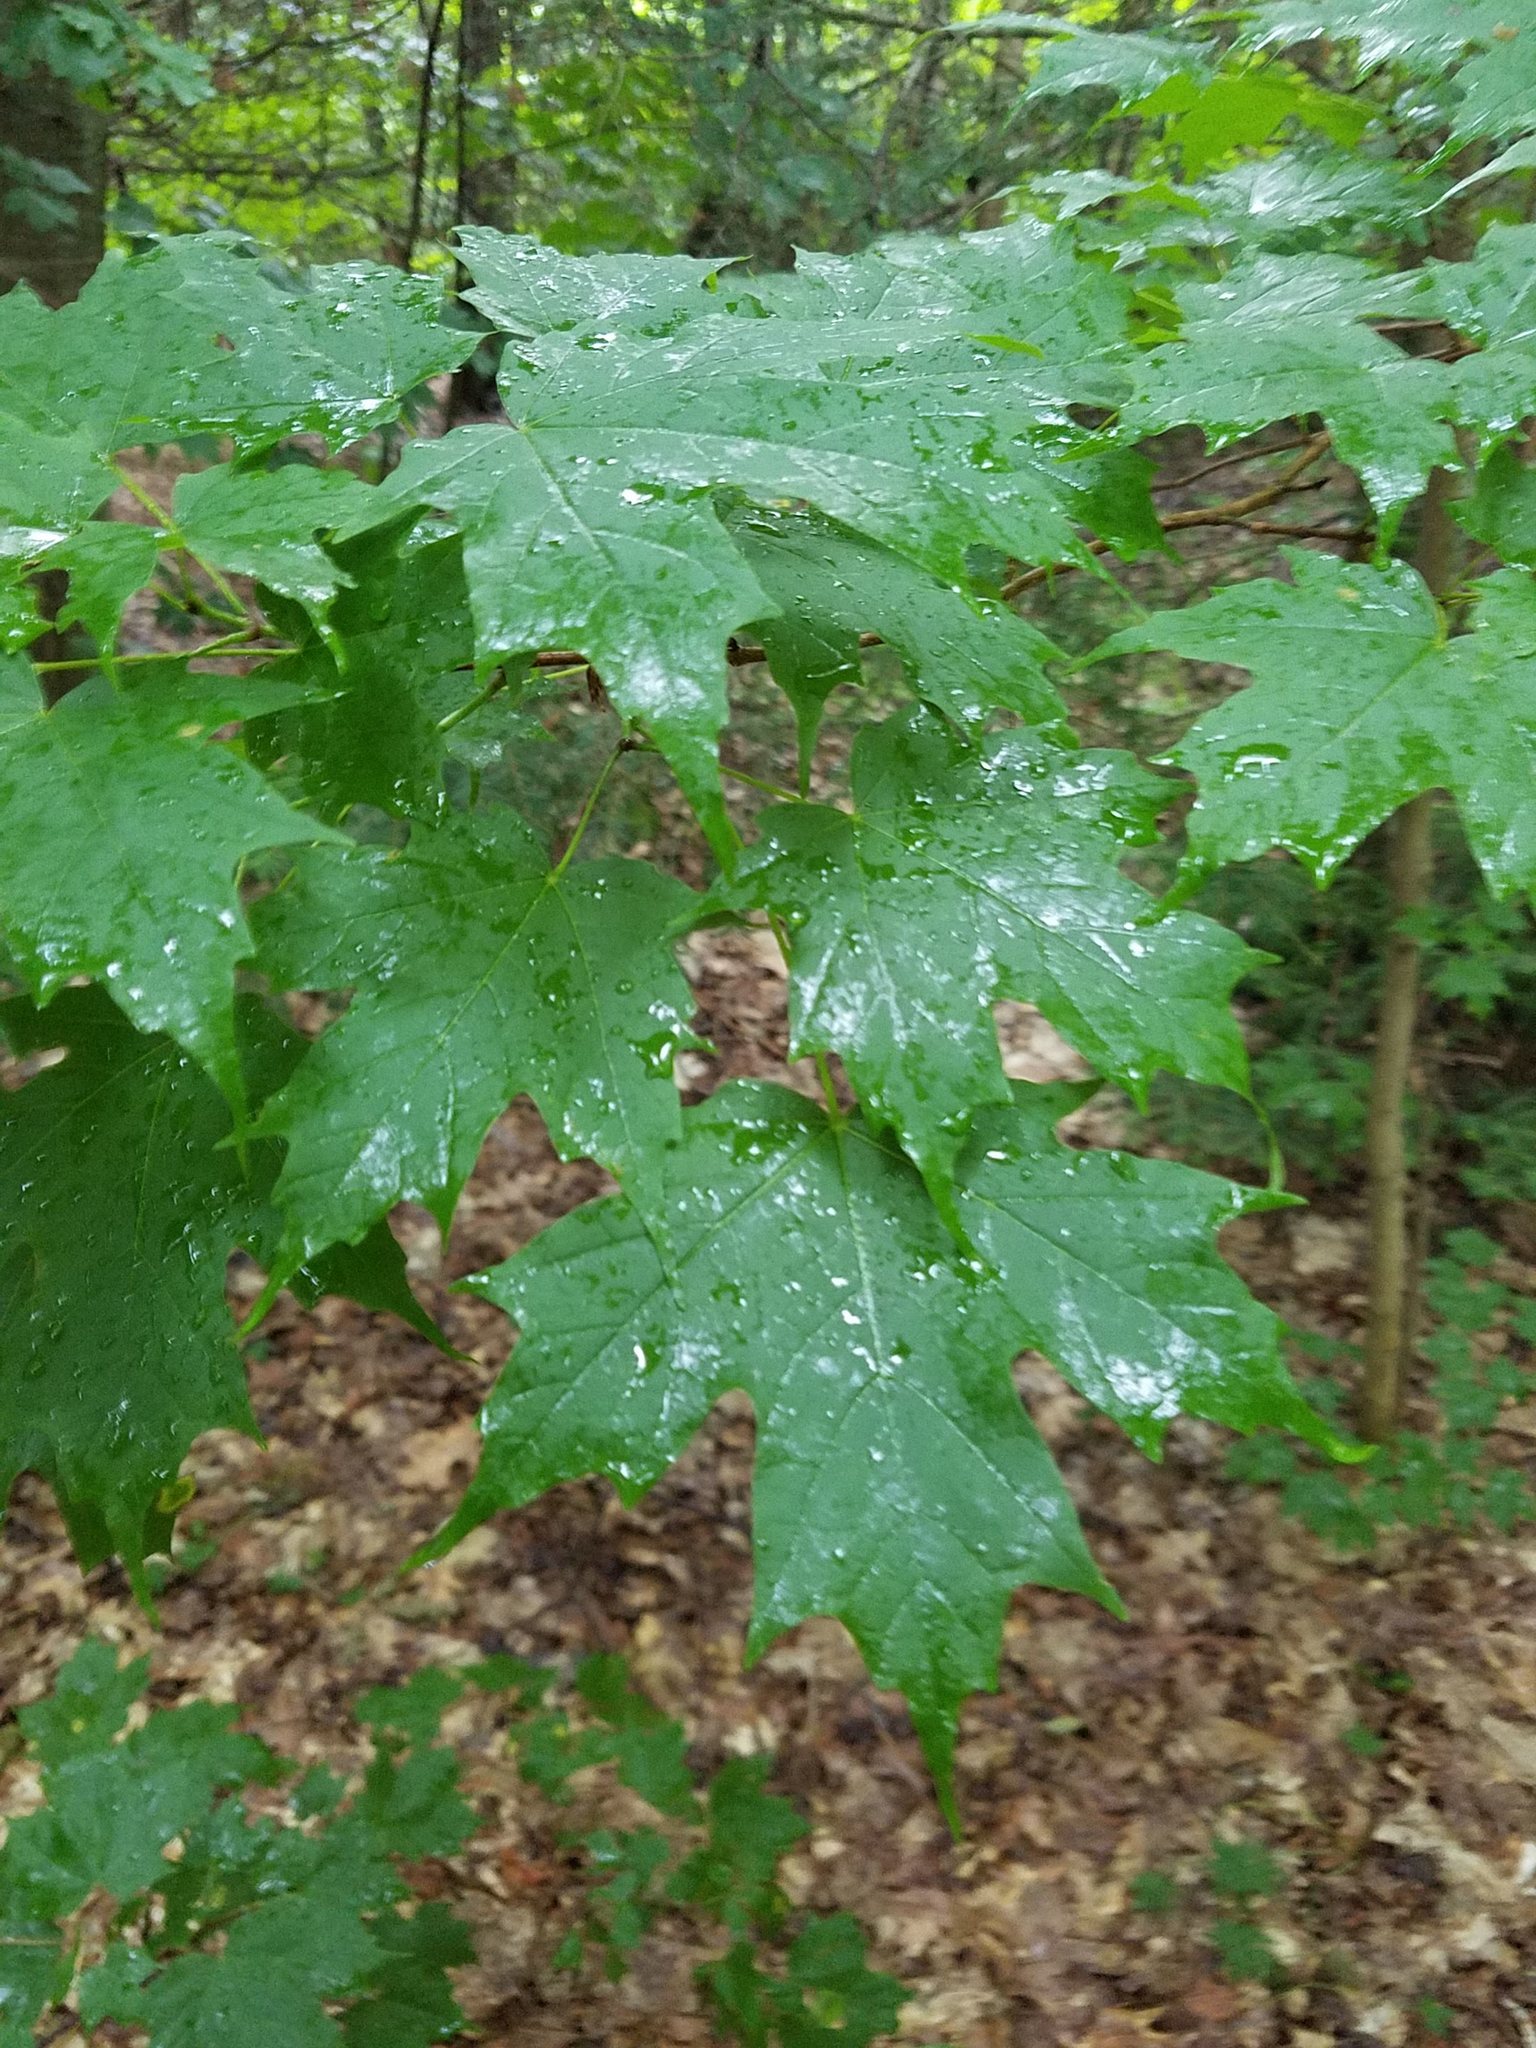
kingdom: Plantae
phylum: Tracheophyta
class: Magnoliopsida
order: Sapindales
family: Sapindaceae
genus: Acer
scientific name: Acer saccharum
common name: Sugar maple
